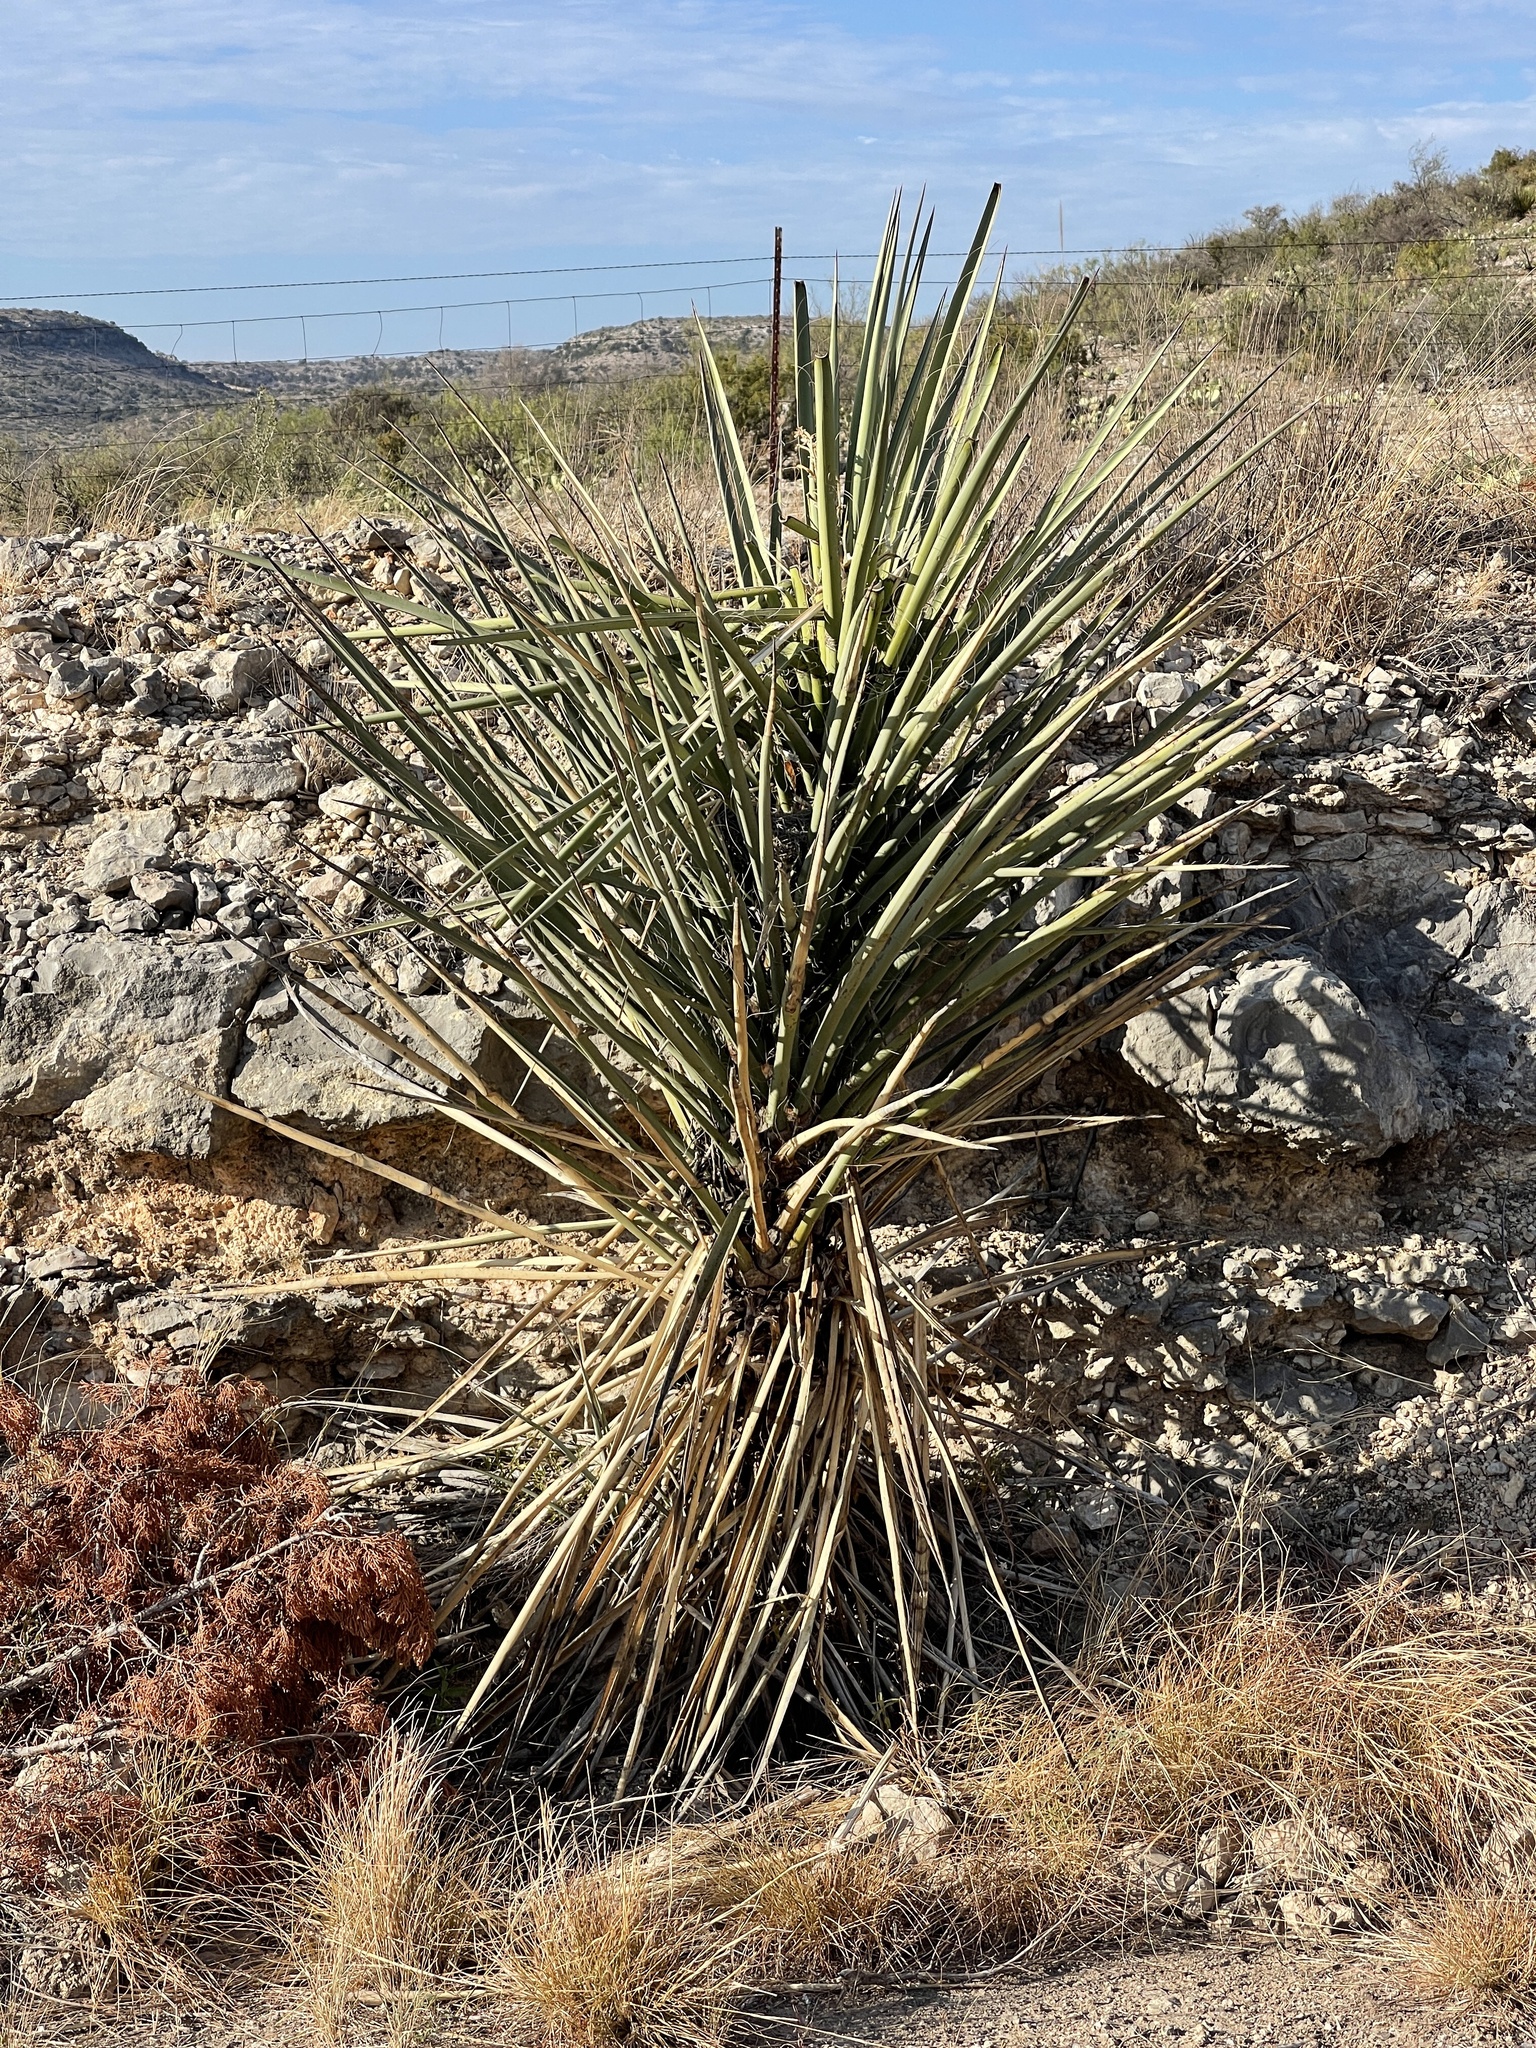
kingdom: Plantae
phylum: Tracheophyta
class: Liliopsida
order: Asparagales
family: Asparagaceae
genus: Yucca
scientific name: Yucca treculiana
